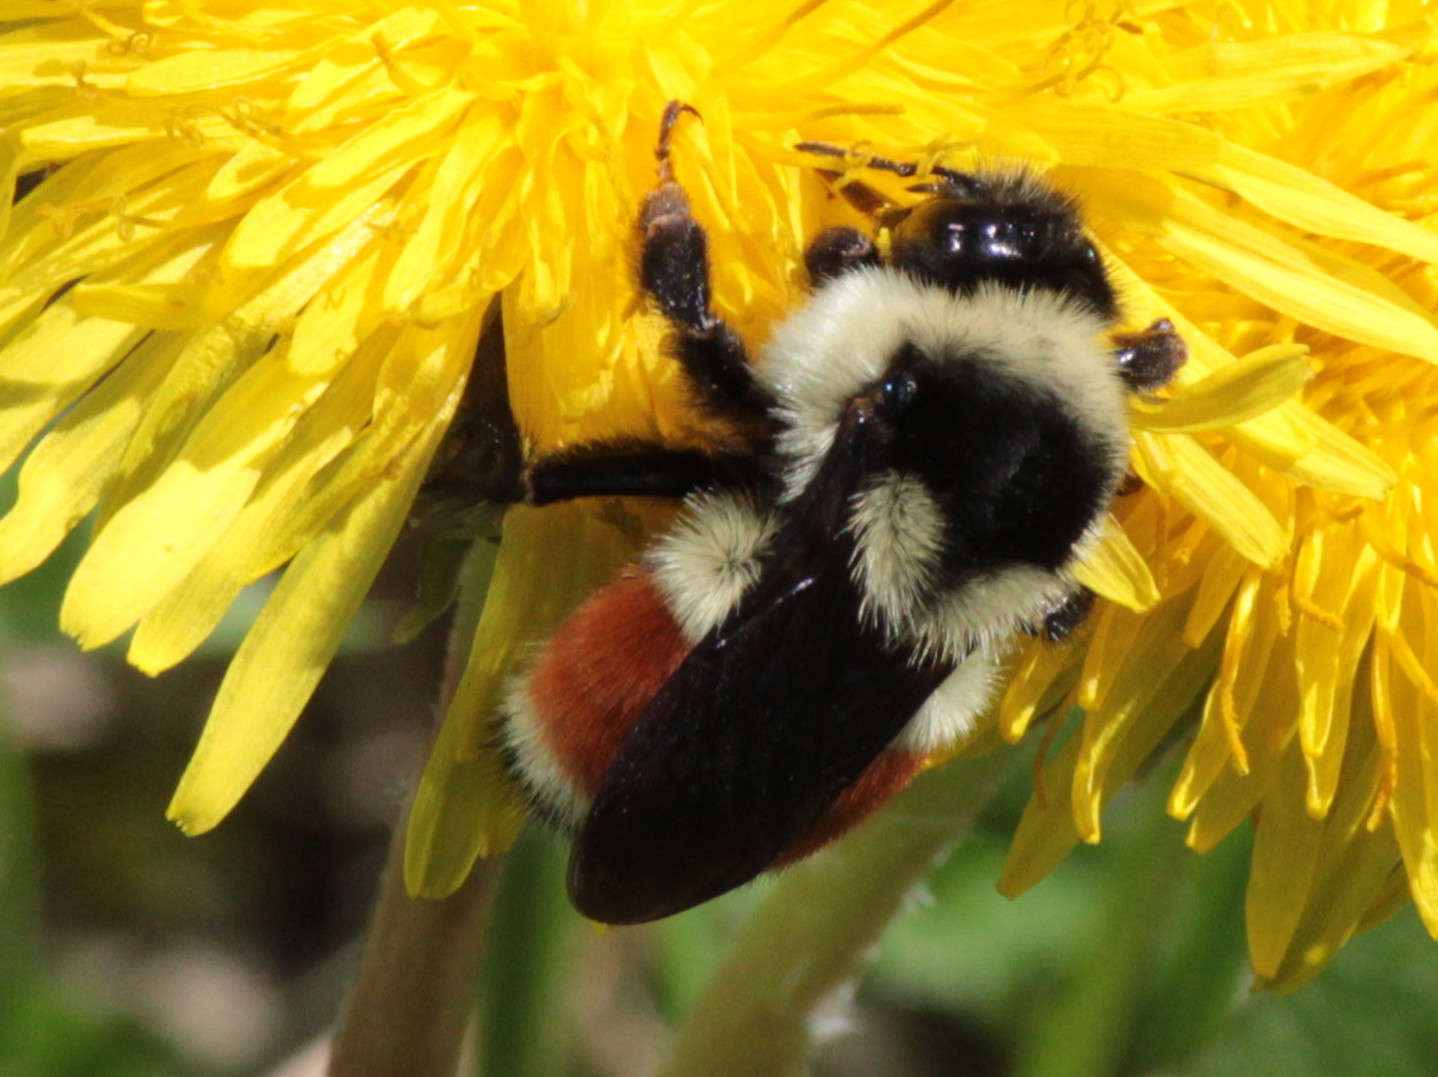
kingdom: Animalia
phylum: Arthropoda
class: Insecta
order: Hymenoptera
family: Apidae
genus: Bombus
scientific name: Bombus ternarius
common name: Tri-colored bumble bee
